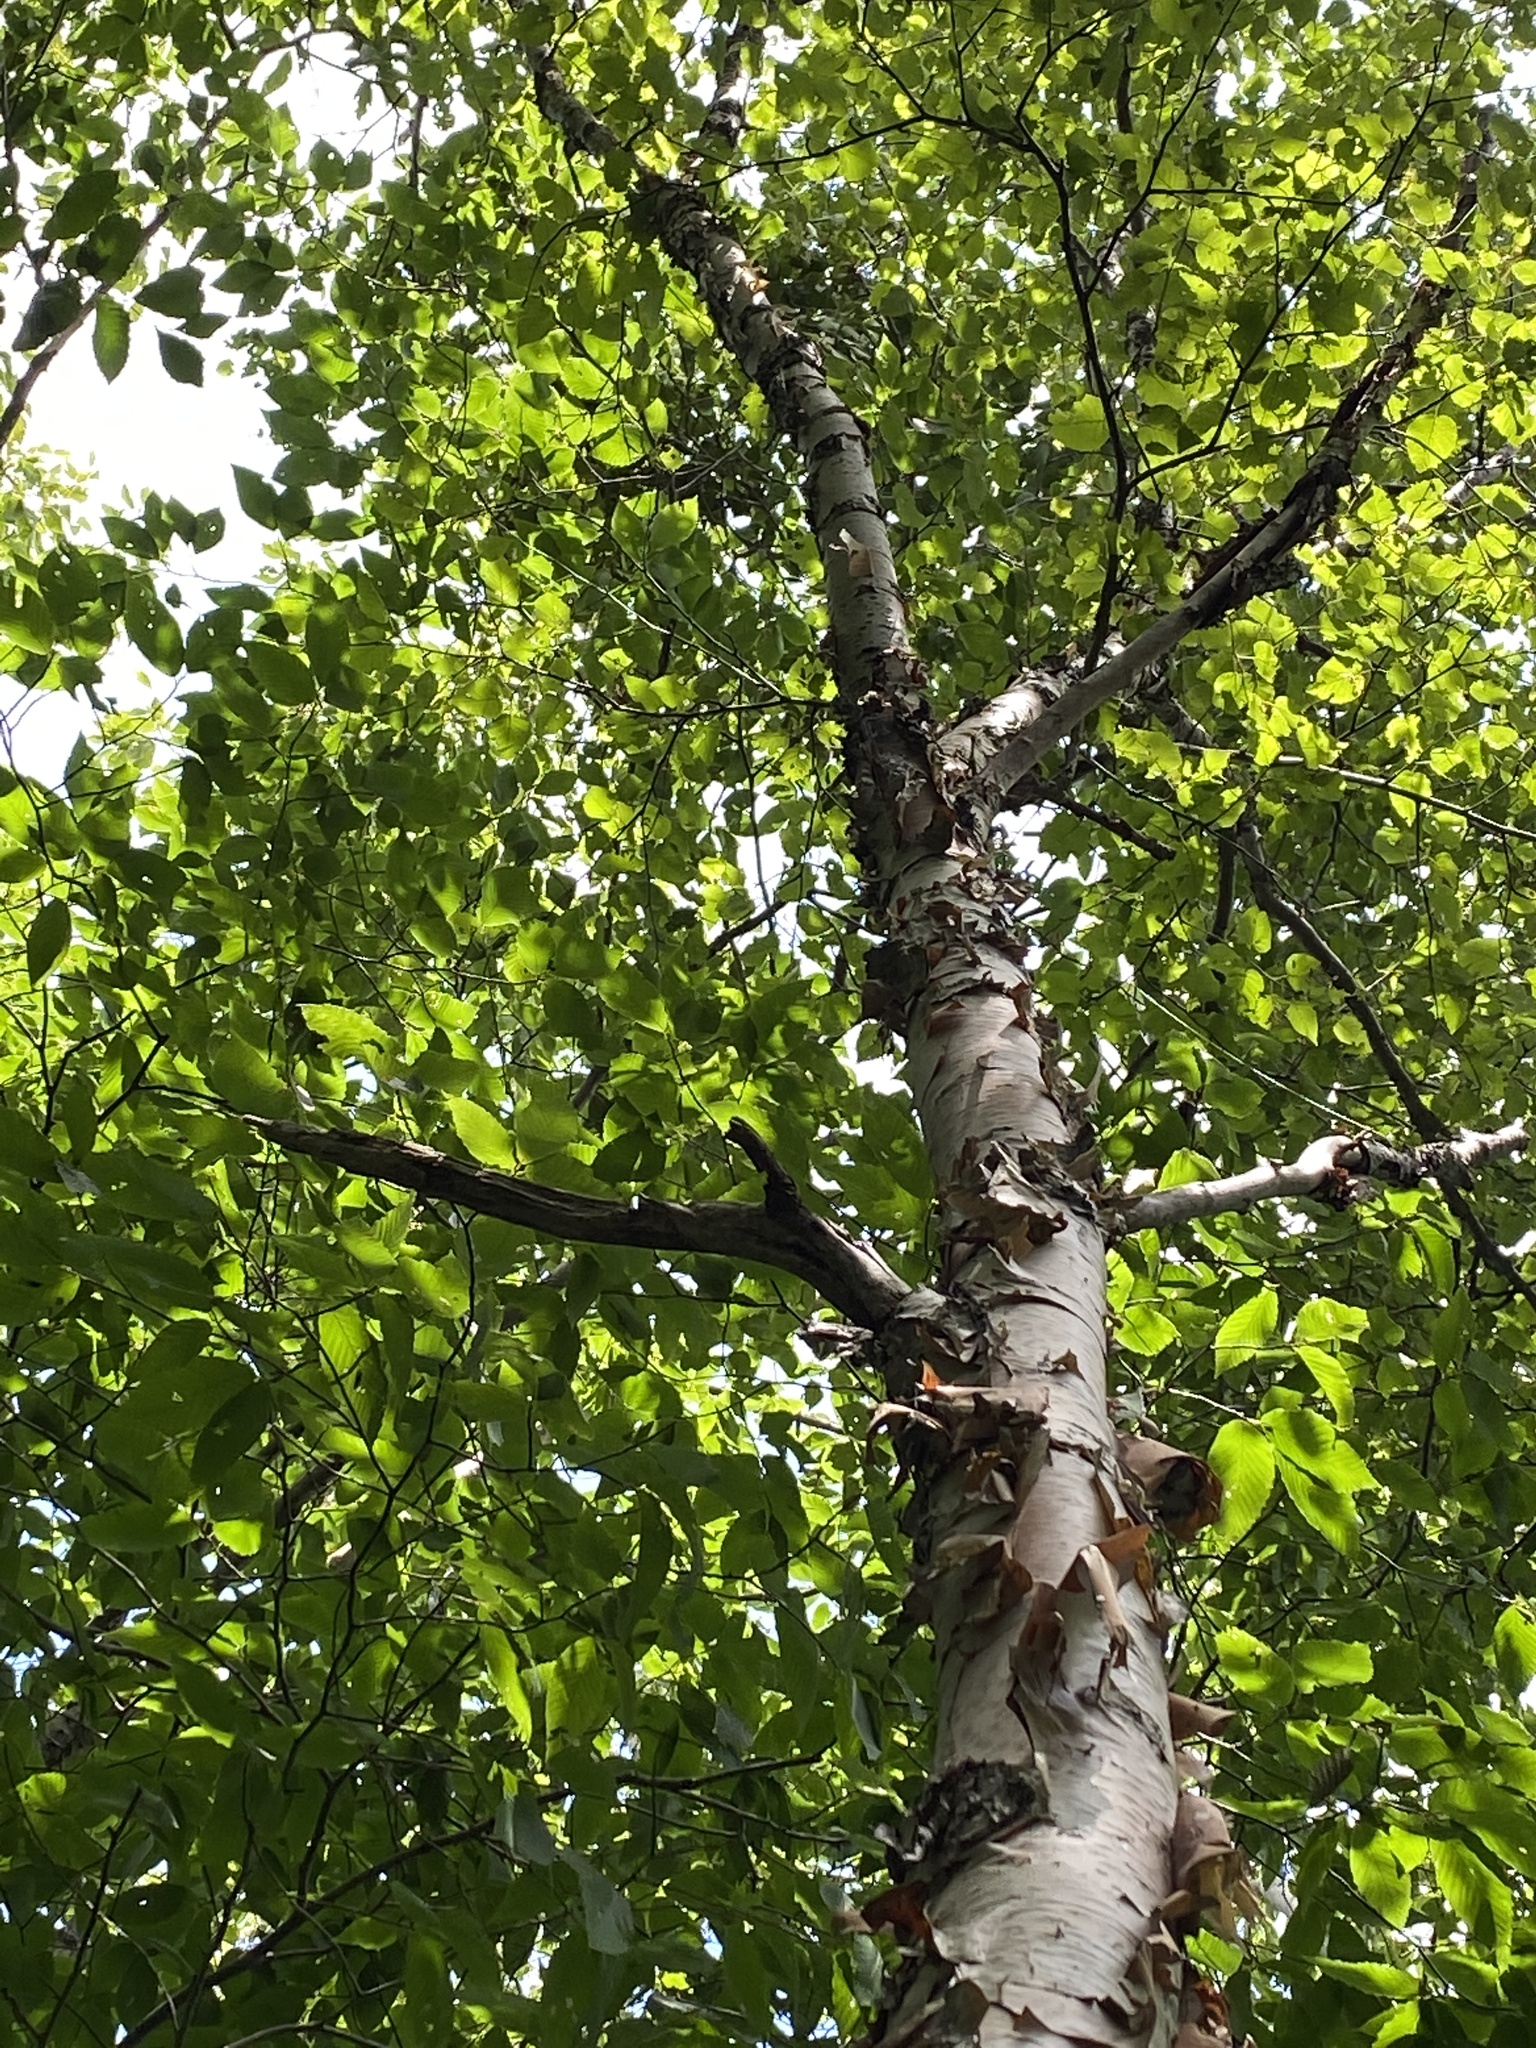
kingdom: Plantae
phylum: Tracheophyta
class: Magnoliopsida
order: Fagales
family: Betulaceae
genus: Betula
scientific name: Betula cordifolia
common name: Mountain white birch
